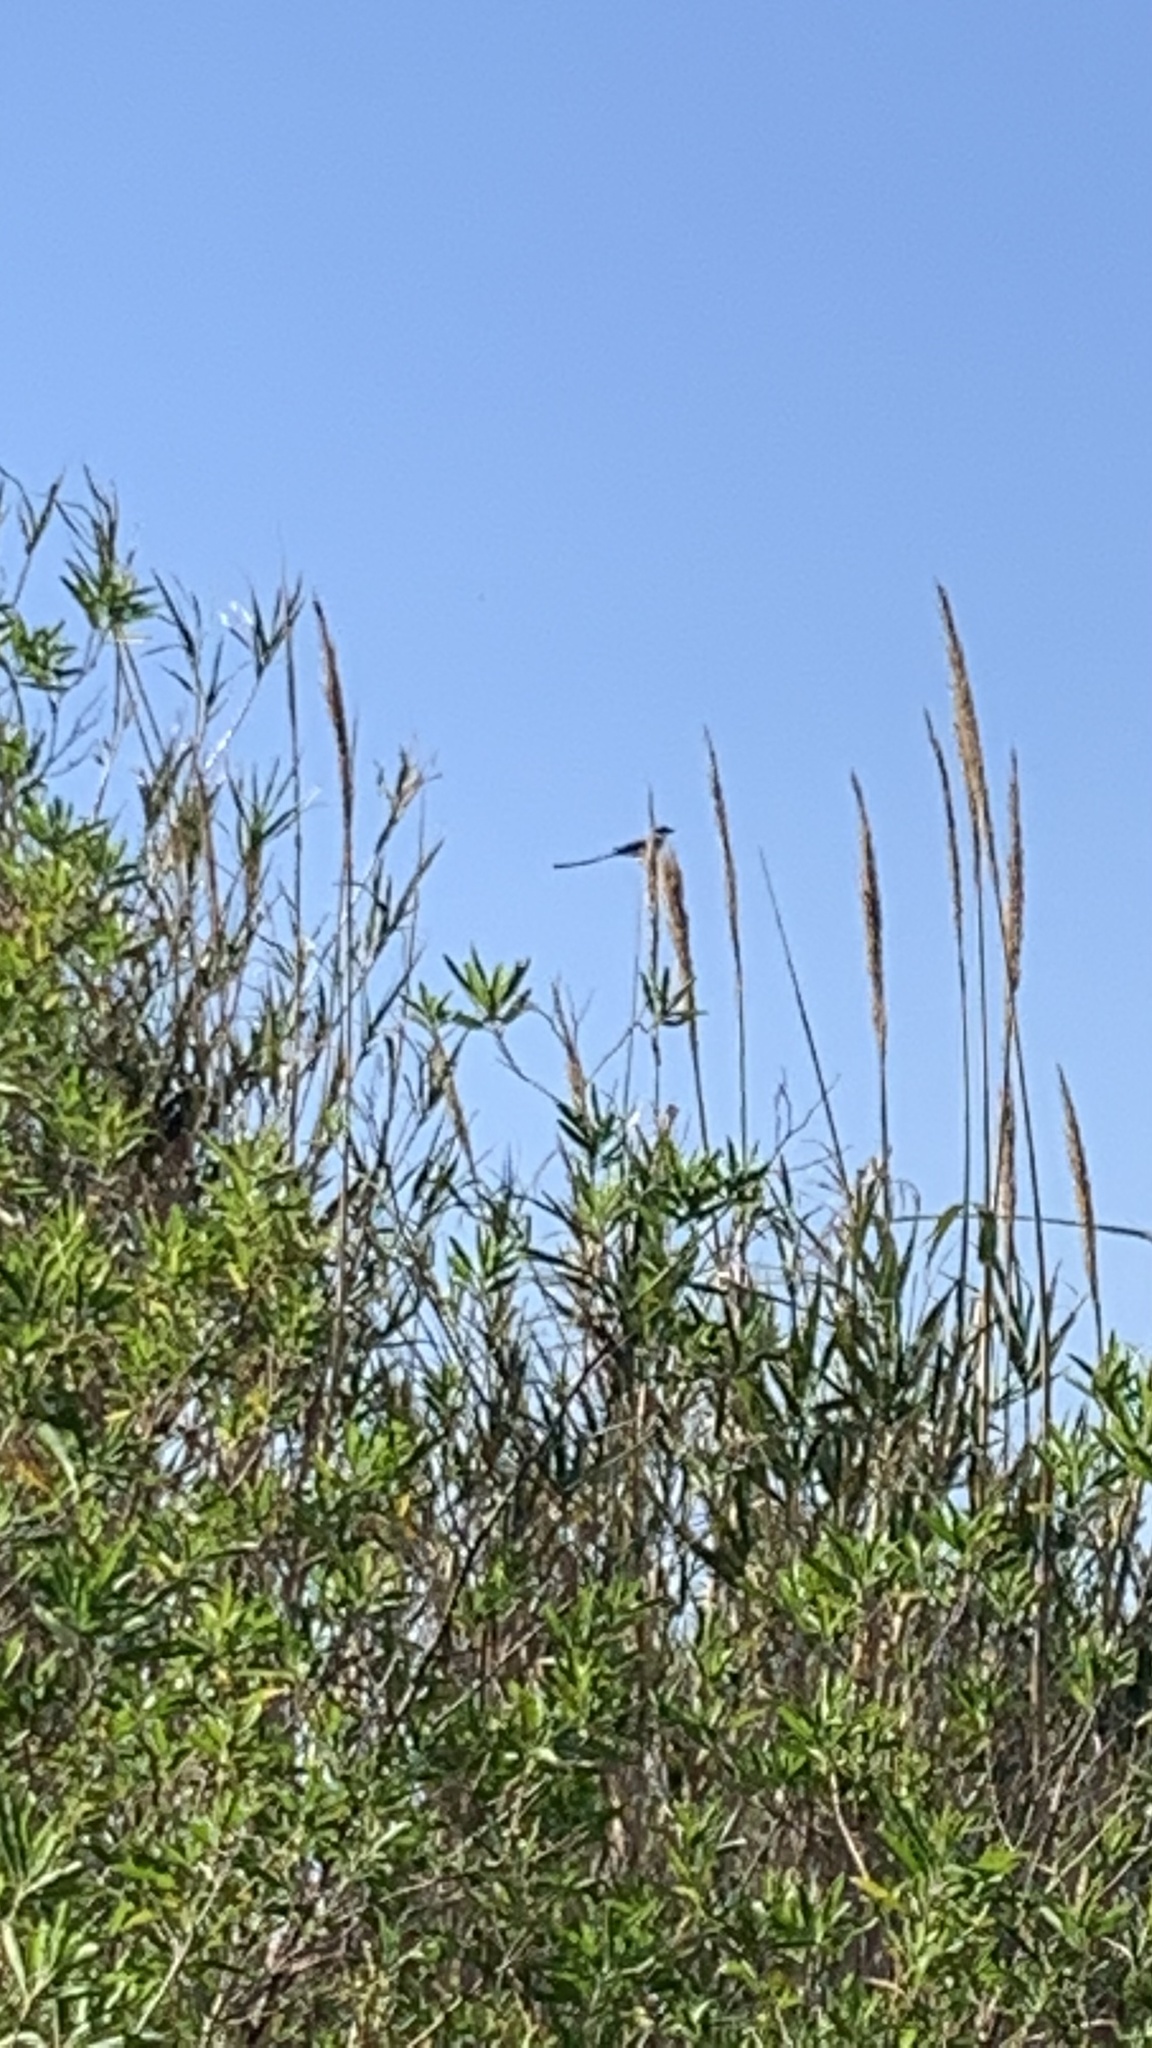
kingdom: Animalia
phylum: Chordata
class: Aves
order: Passeriformes
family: Tyrannidae
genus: Tyrannus
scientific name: Tyrannus savana
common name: Fork-tailed flycatcher
